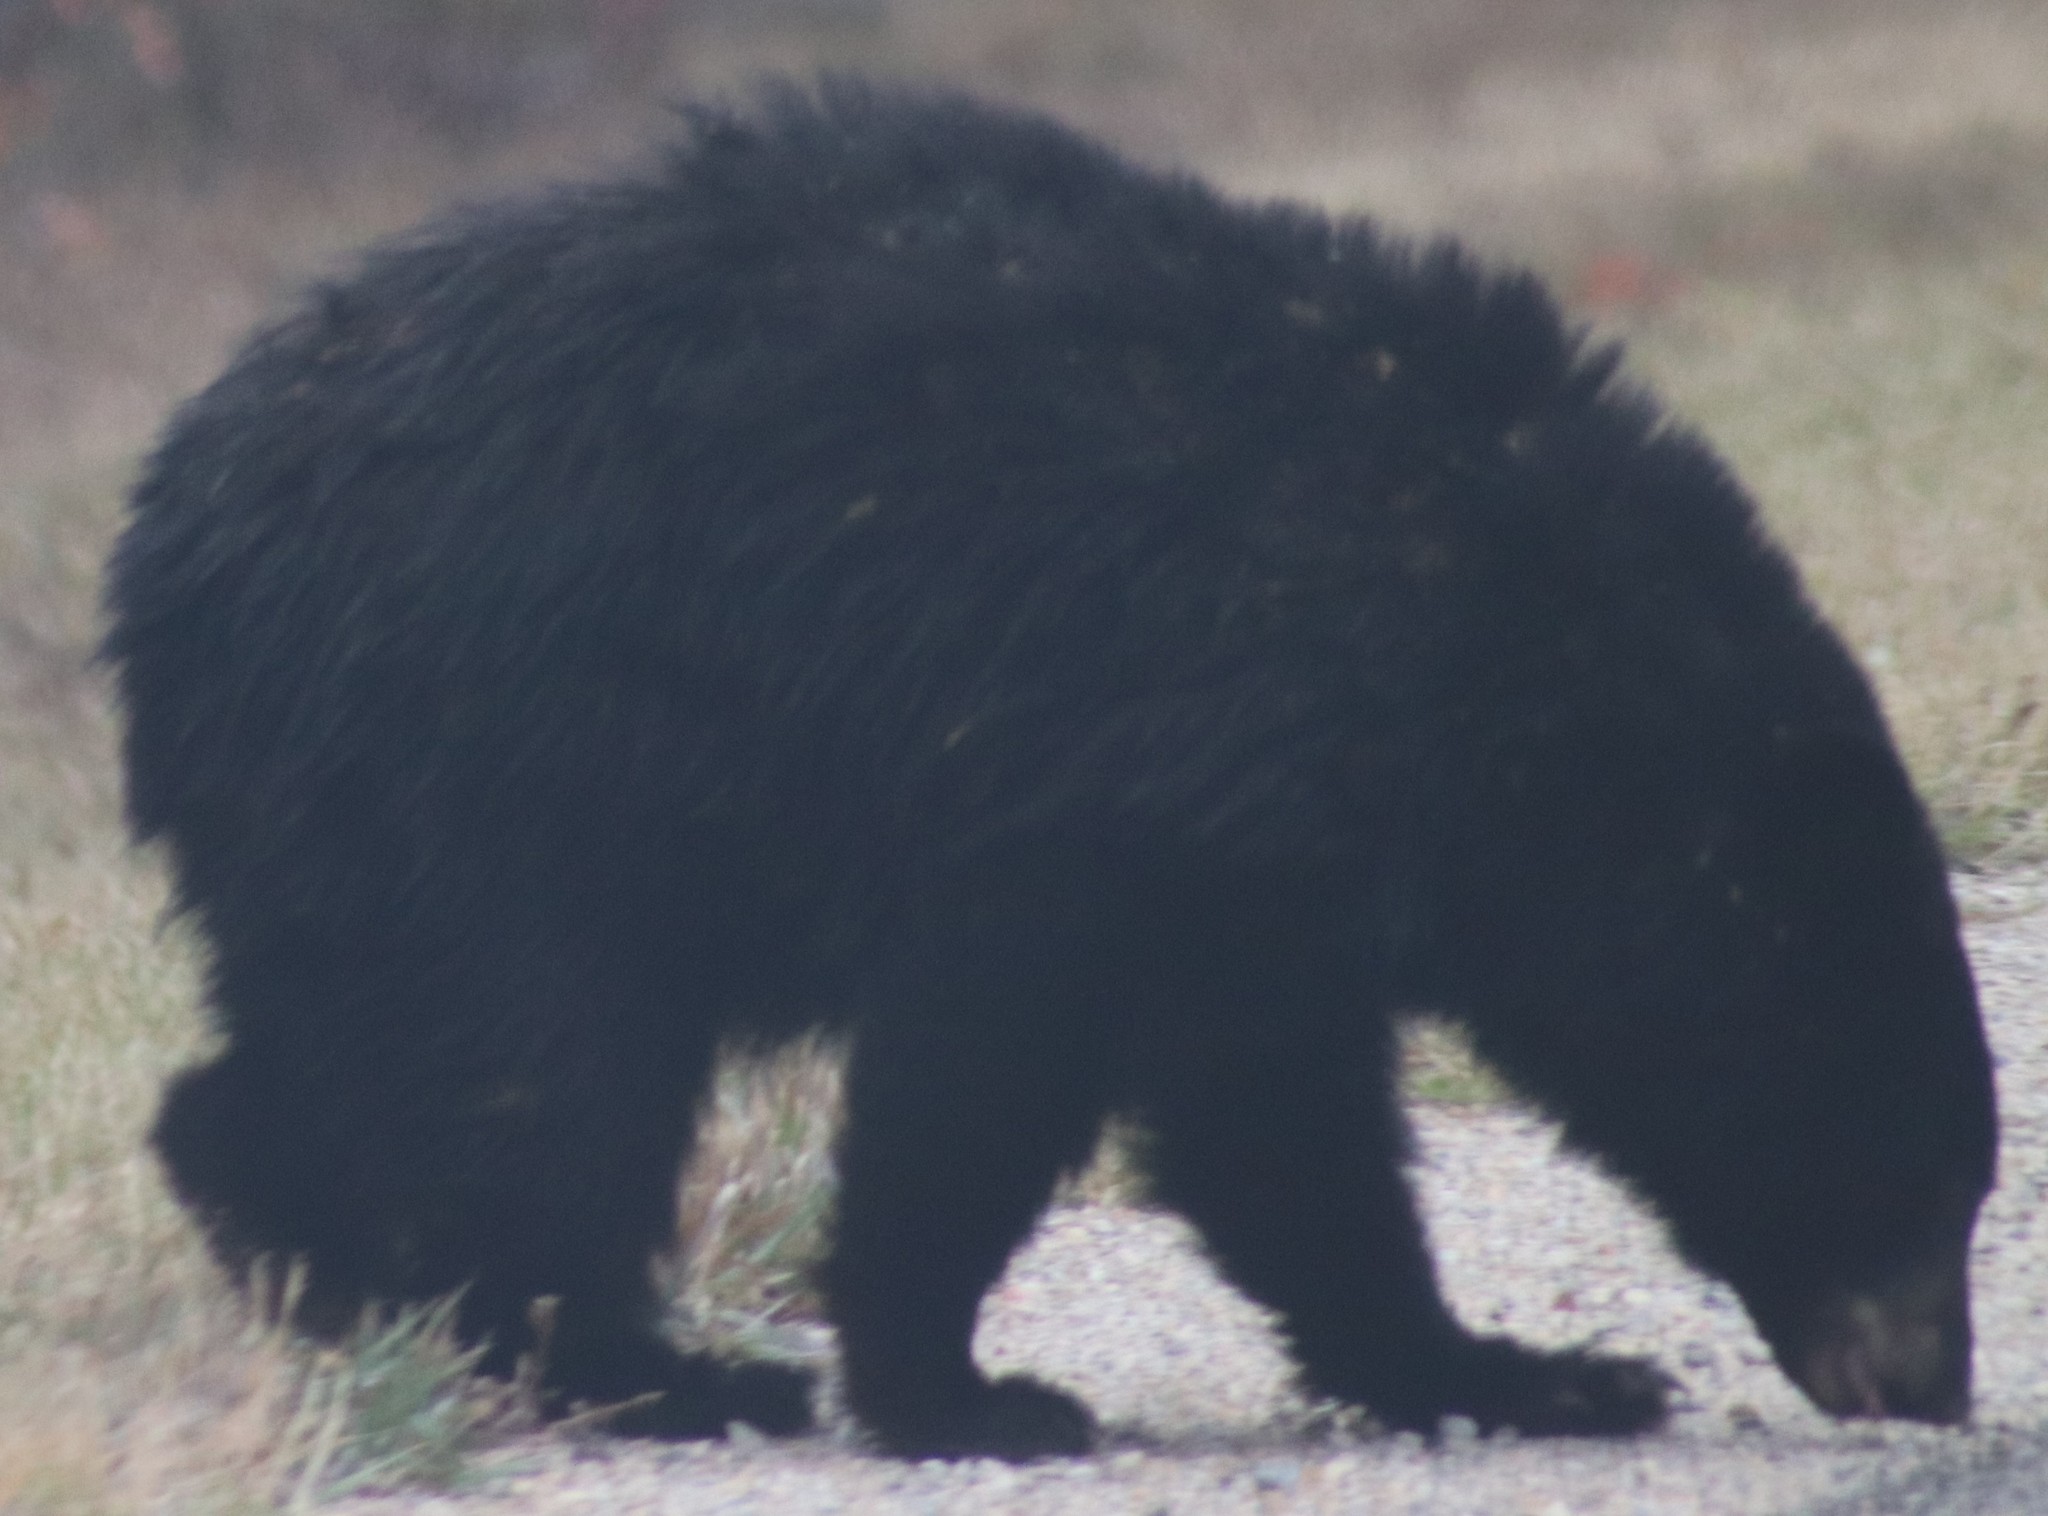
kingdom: Animalia
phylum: Chordata
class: Mammalia
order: Carnivora
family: Ursidae
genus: Ursus
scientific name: Ursus americanus
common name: American black bear
